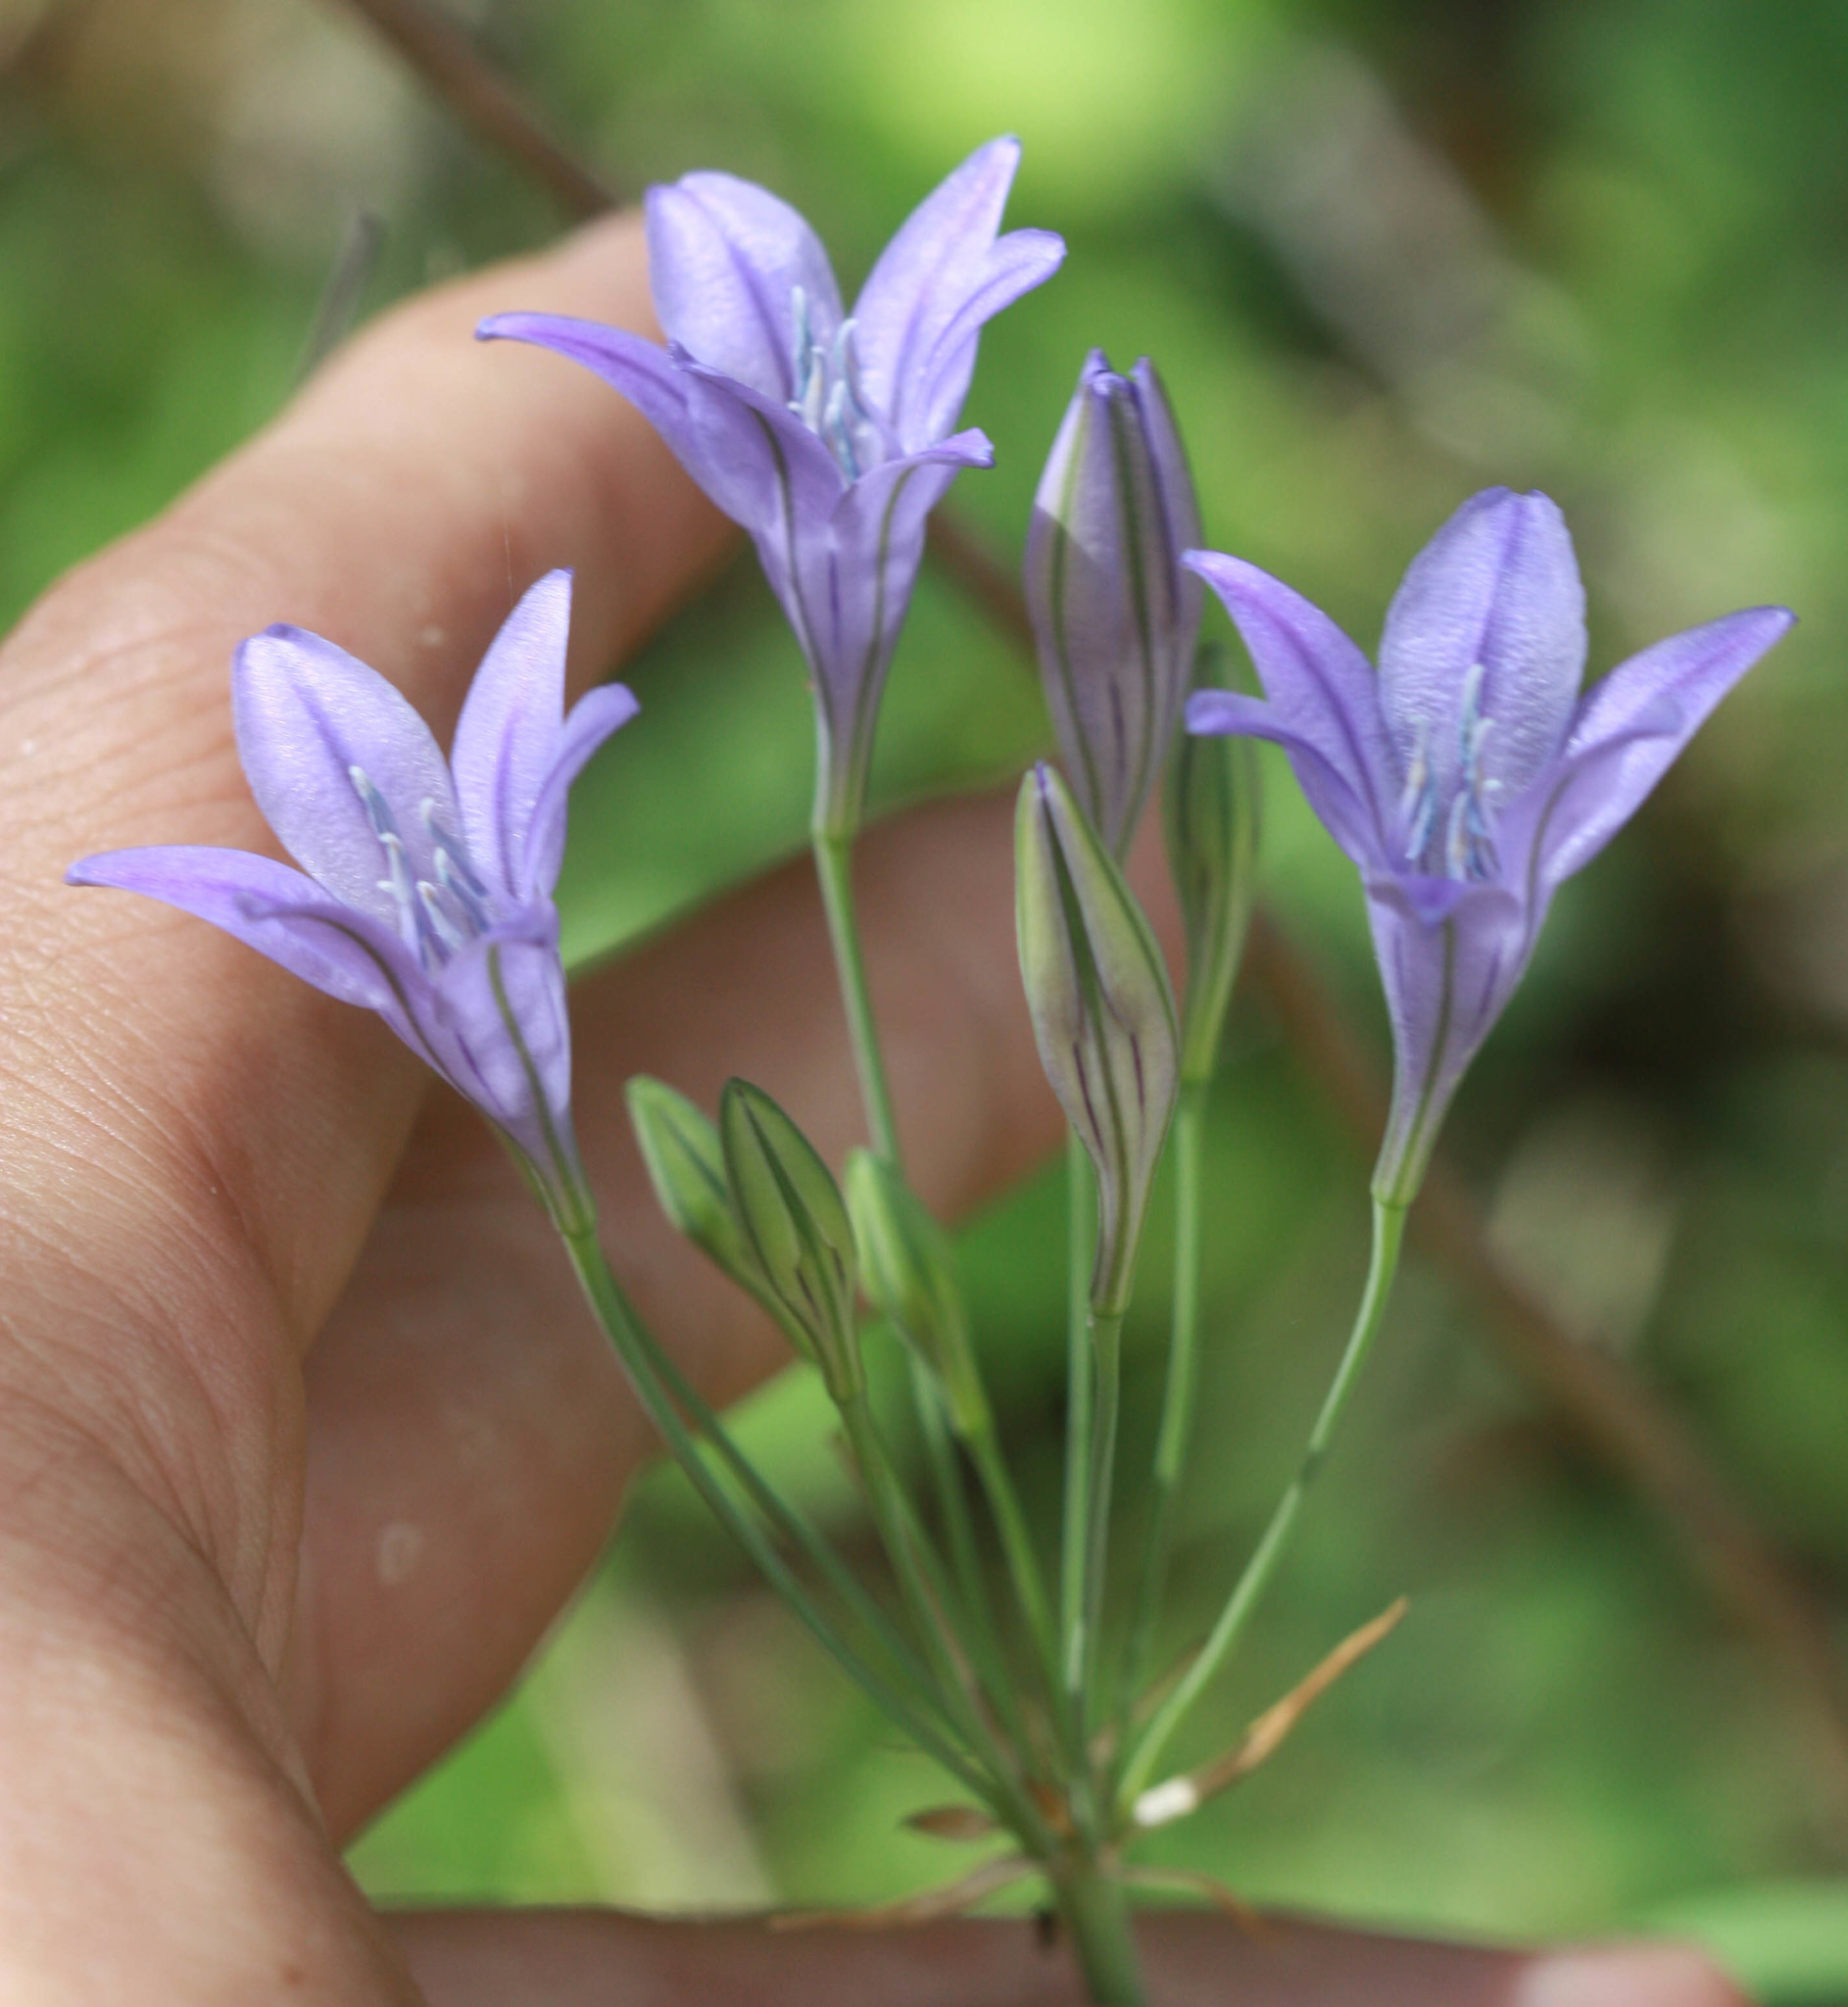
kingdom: Plantae
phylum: Tracheophyta
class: Liliopsida
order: Asparagales
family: Asparagaceae
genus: Triteleia
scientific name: Triteleia laxa
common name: Triplet-lily
